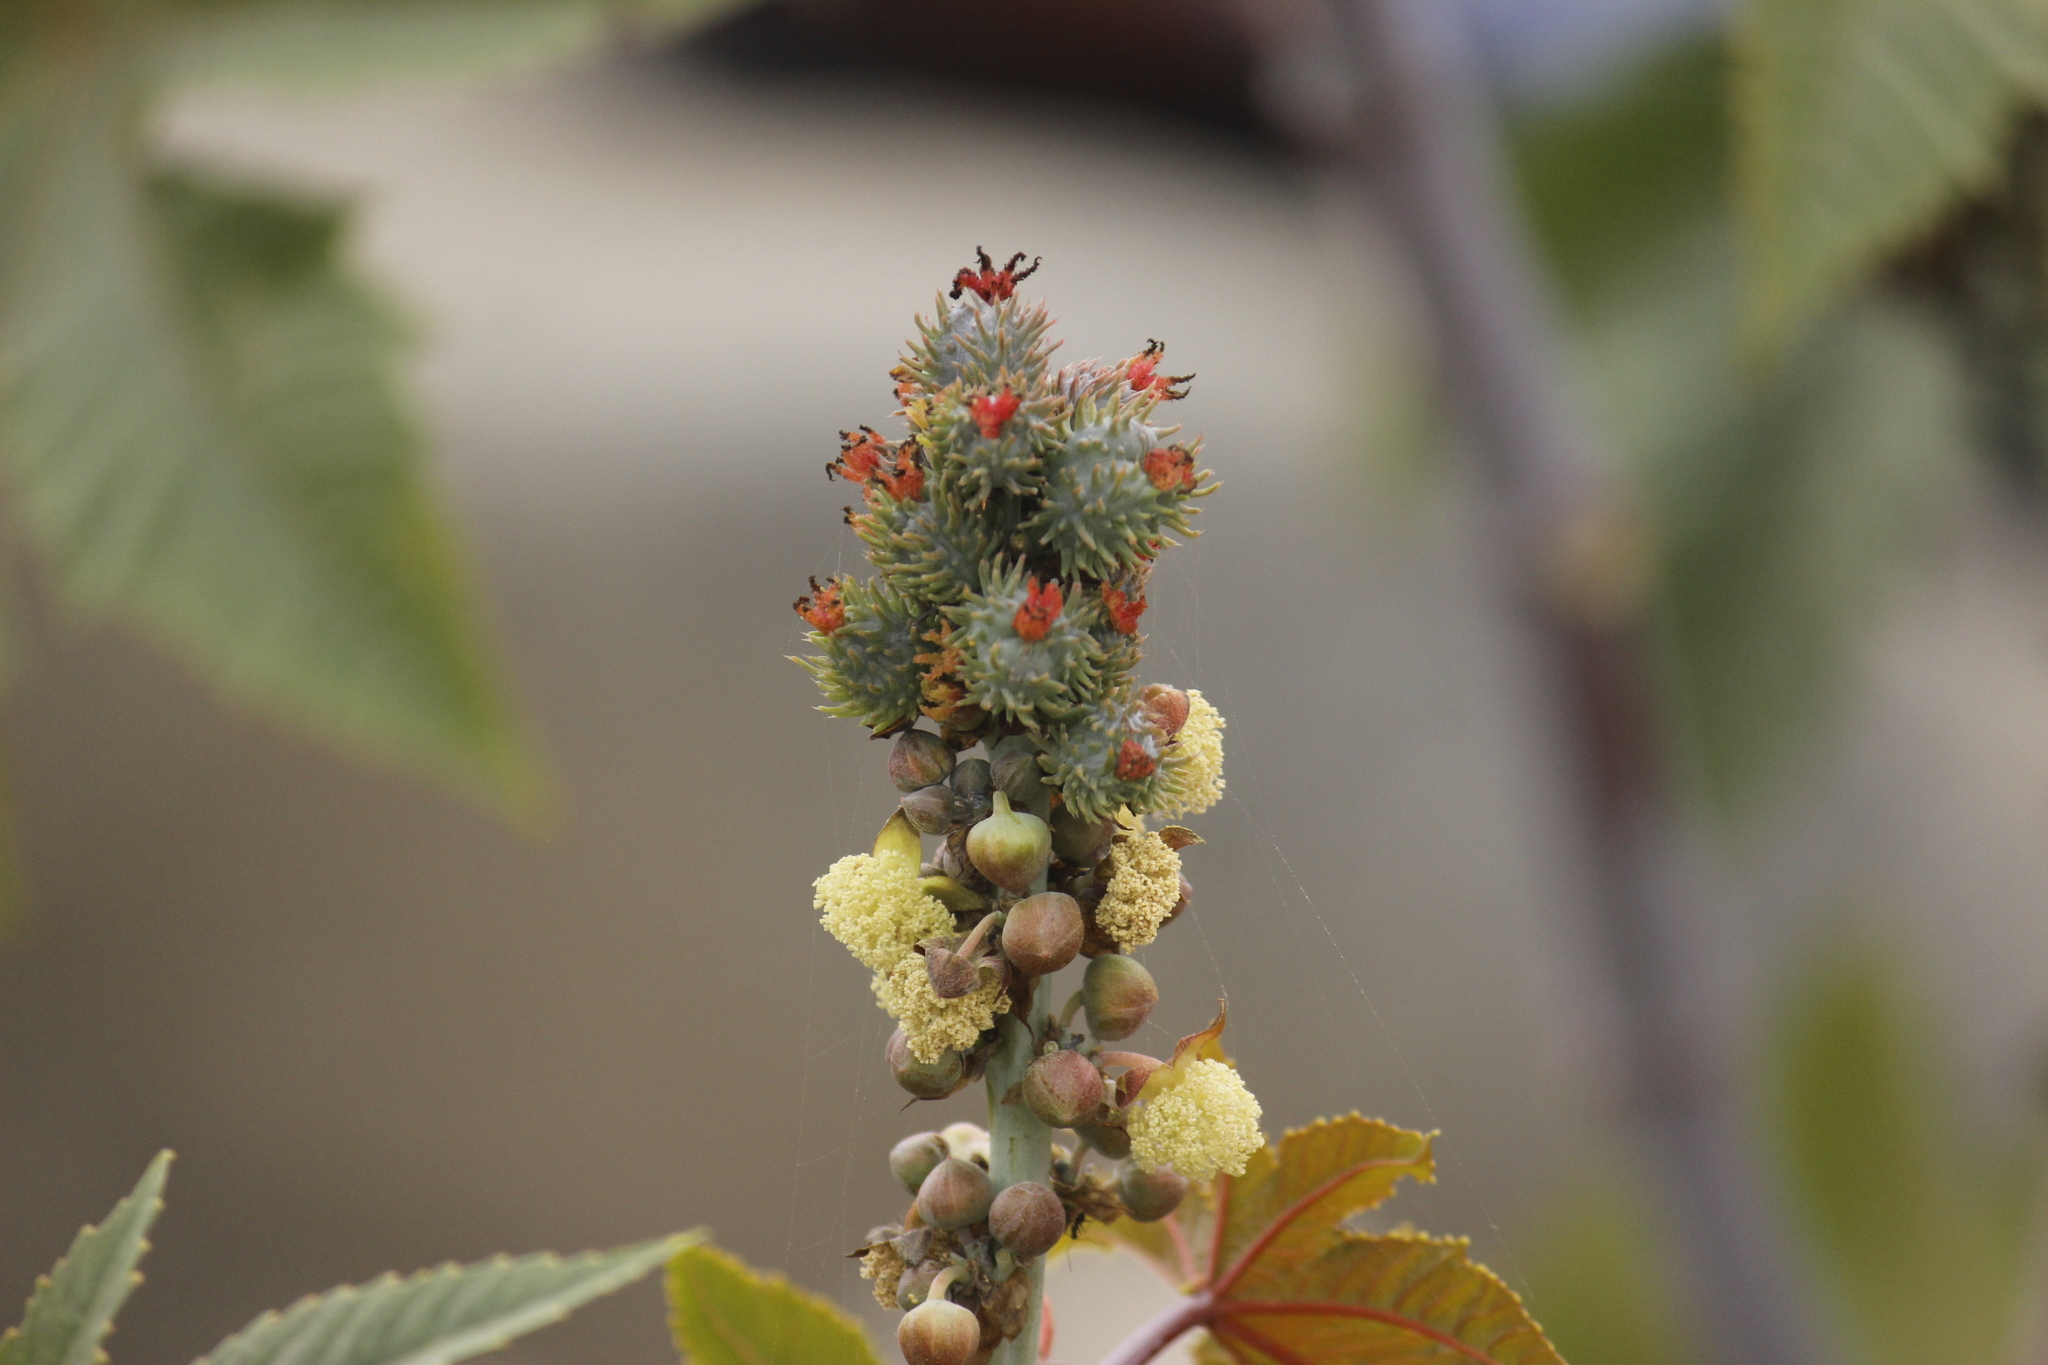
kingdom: Plantae
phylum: Tracheophyta
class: Magnoliopsida
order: Malpighiales
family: Euphorbiaceae
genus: Ricinus
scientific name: Ricinus communis
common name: Castor-oil-plant
